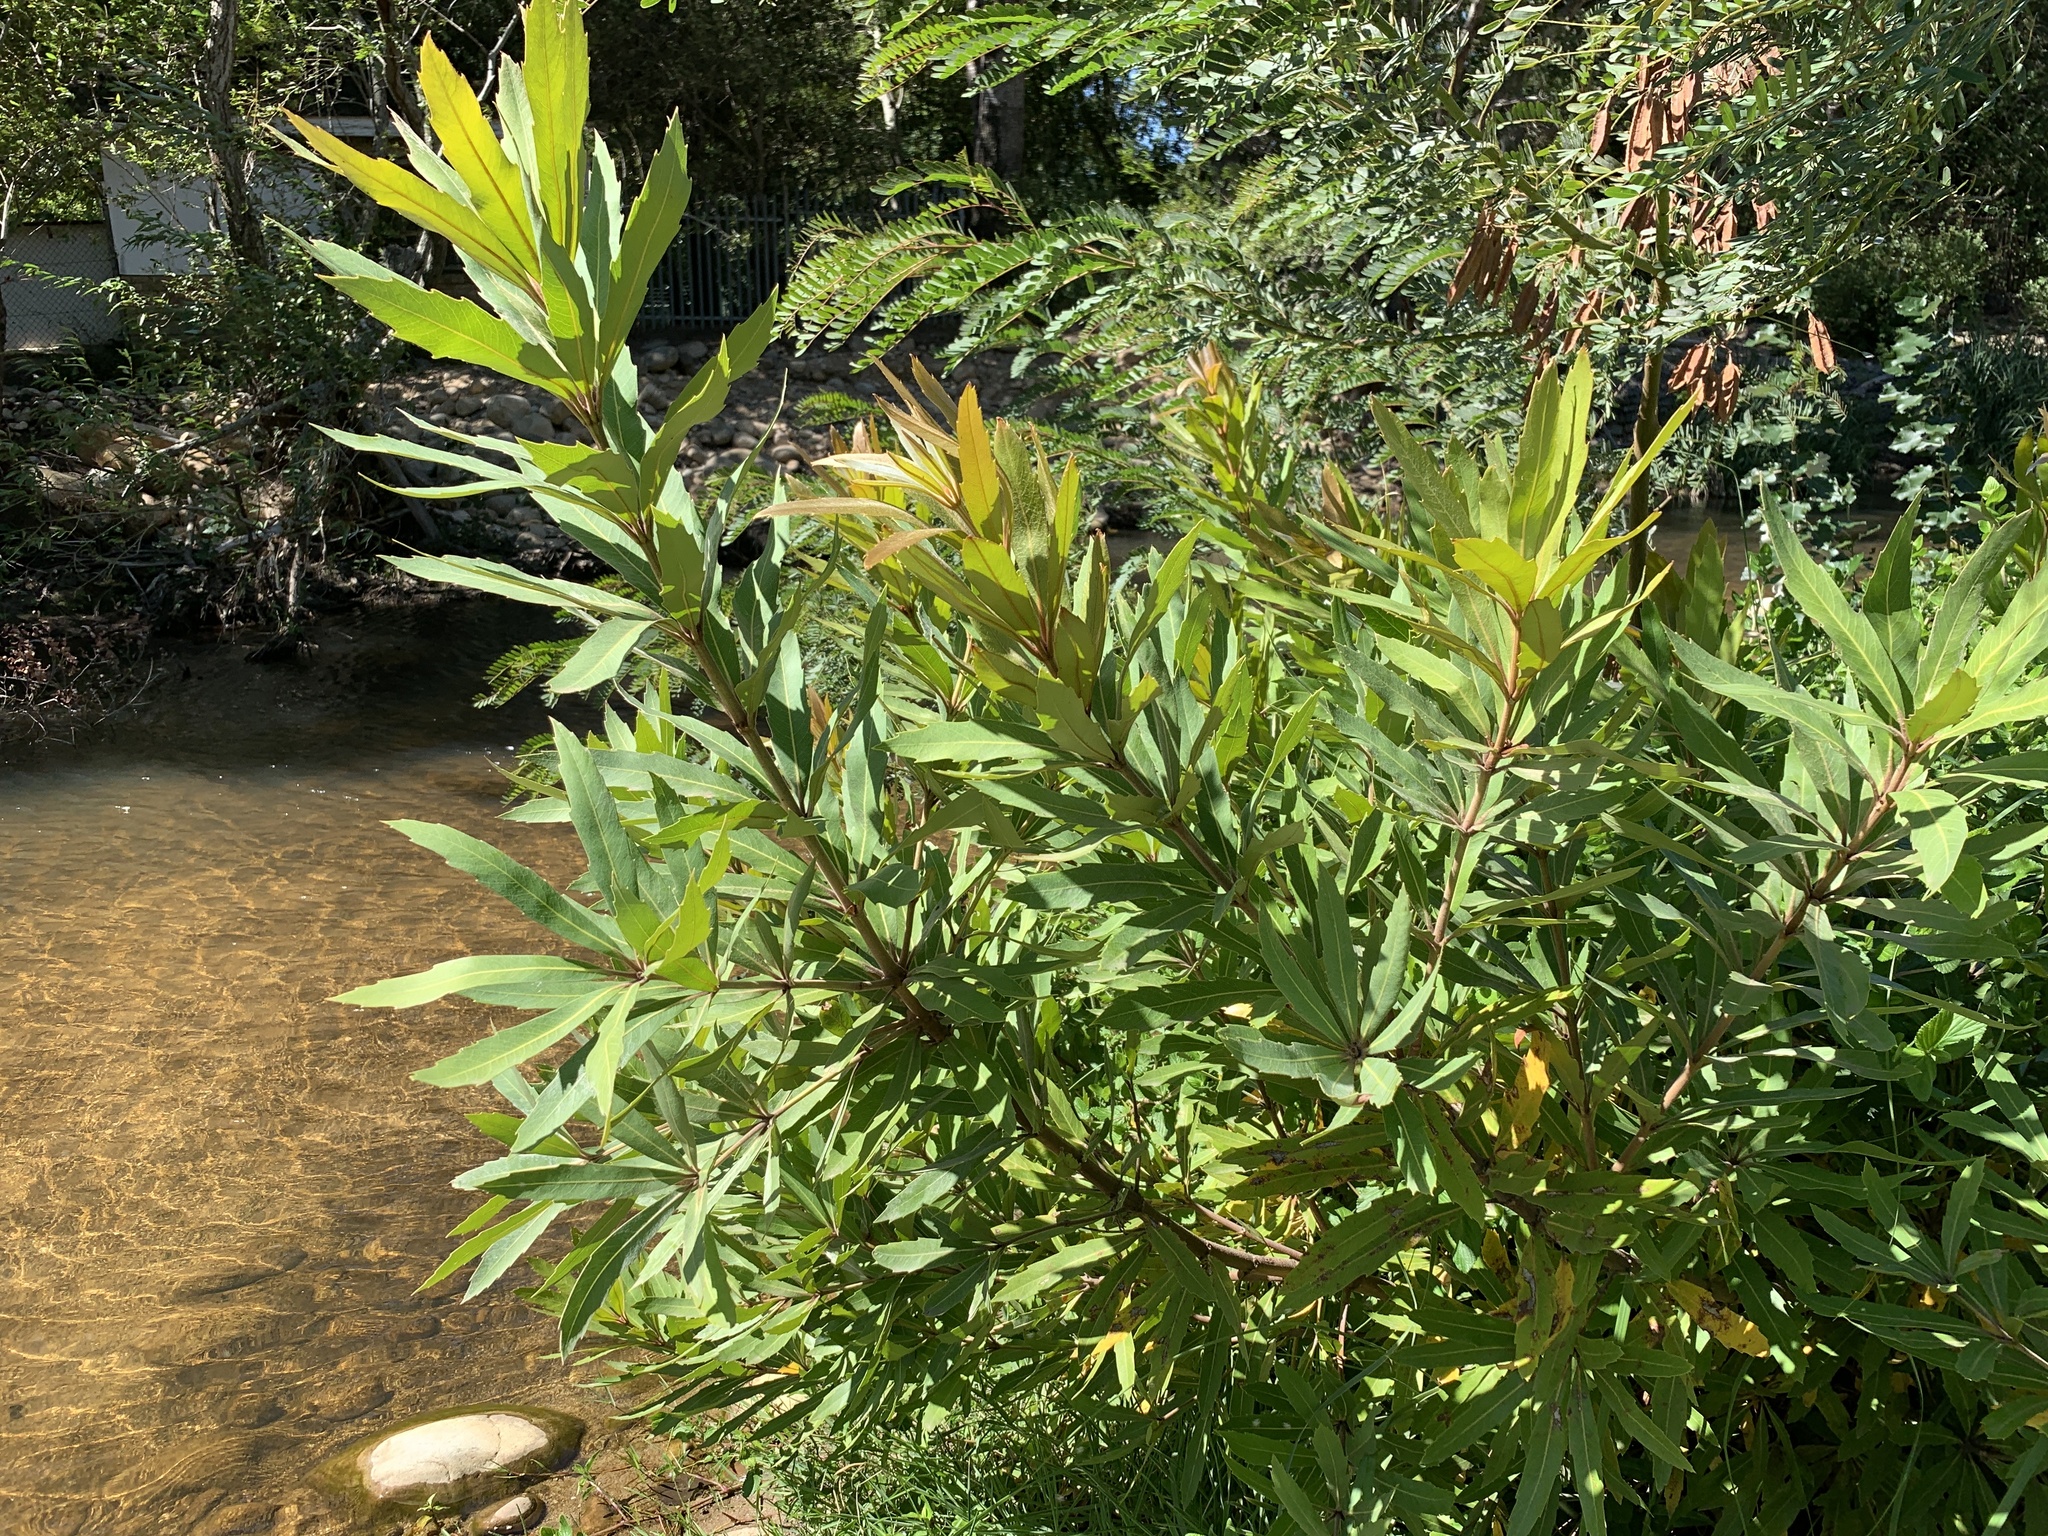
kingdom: Plantae
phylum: Tracheophyta
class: Magnoliopsida
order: Proteales
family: Proteaceae
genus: Brabejum
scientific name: Brabejum stellatifolium
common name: Wild almond
